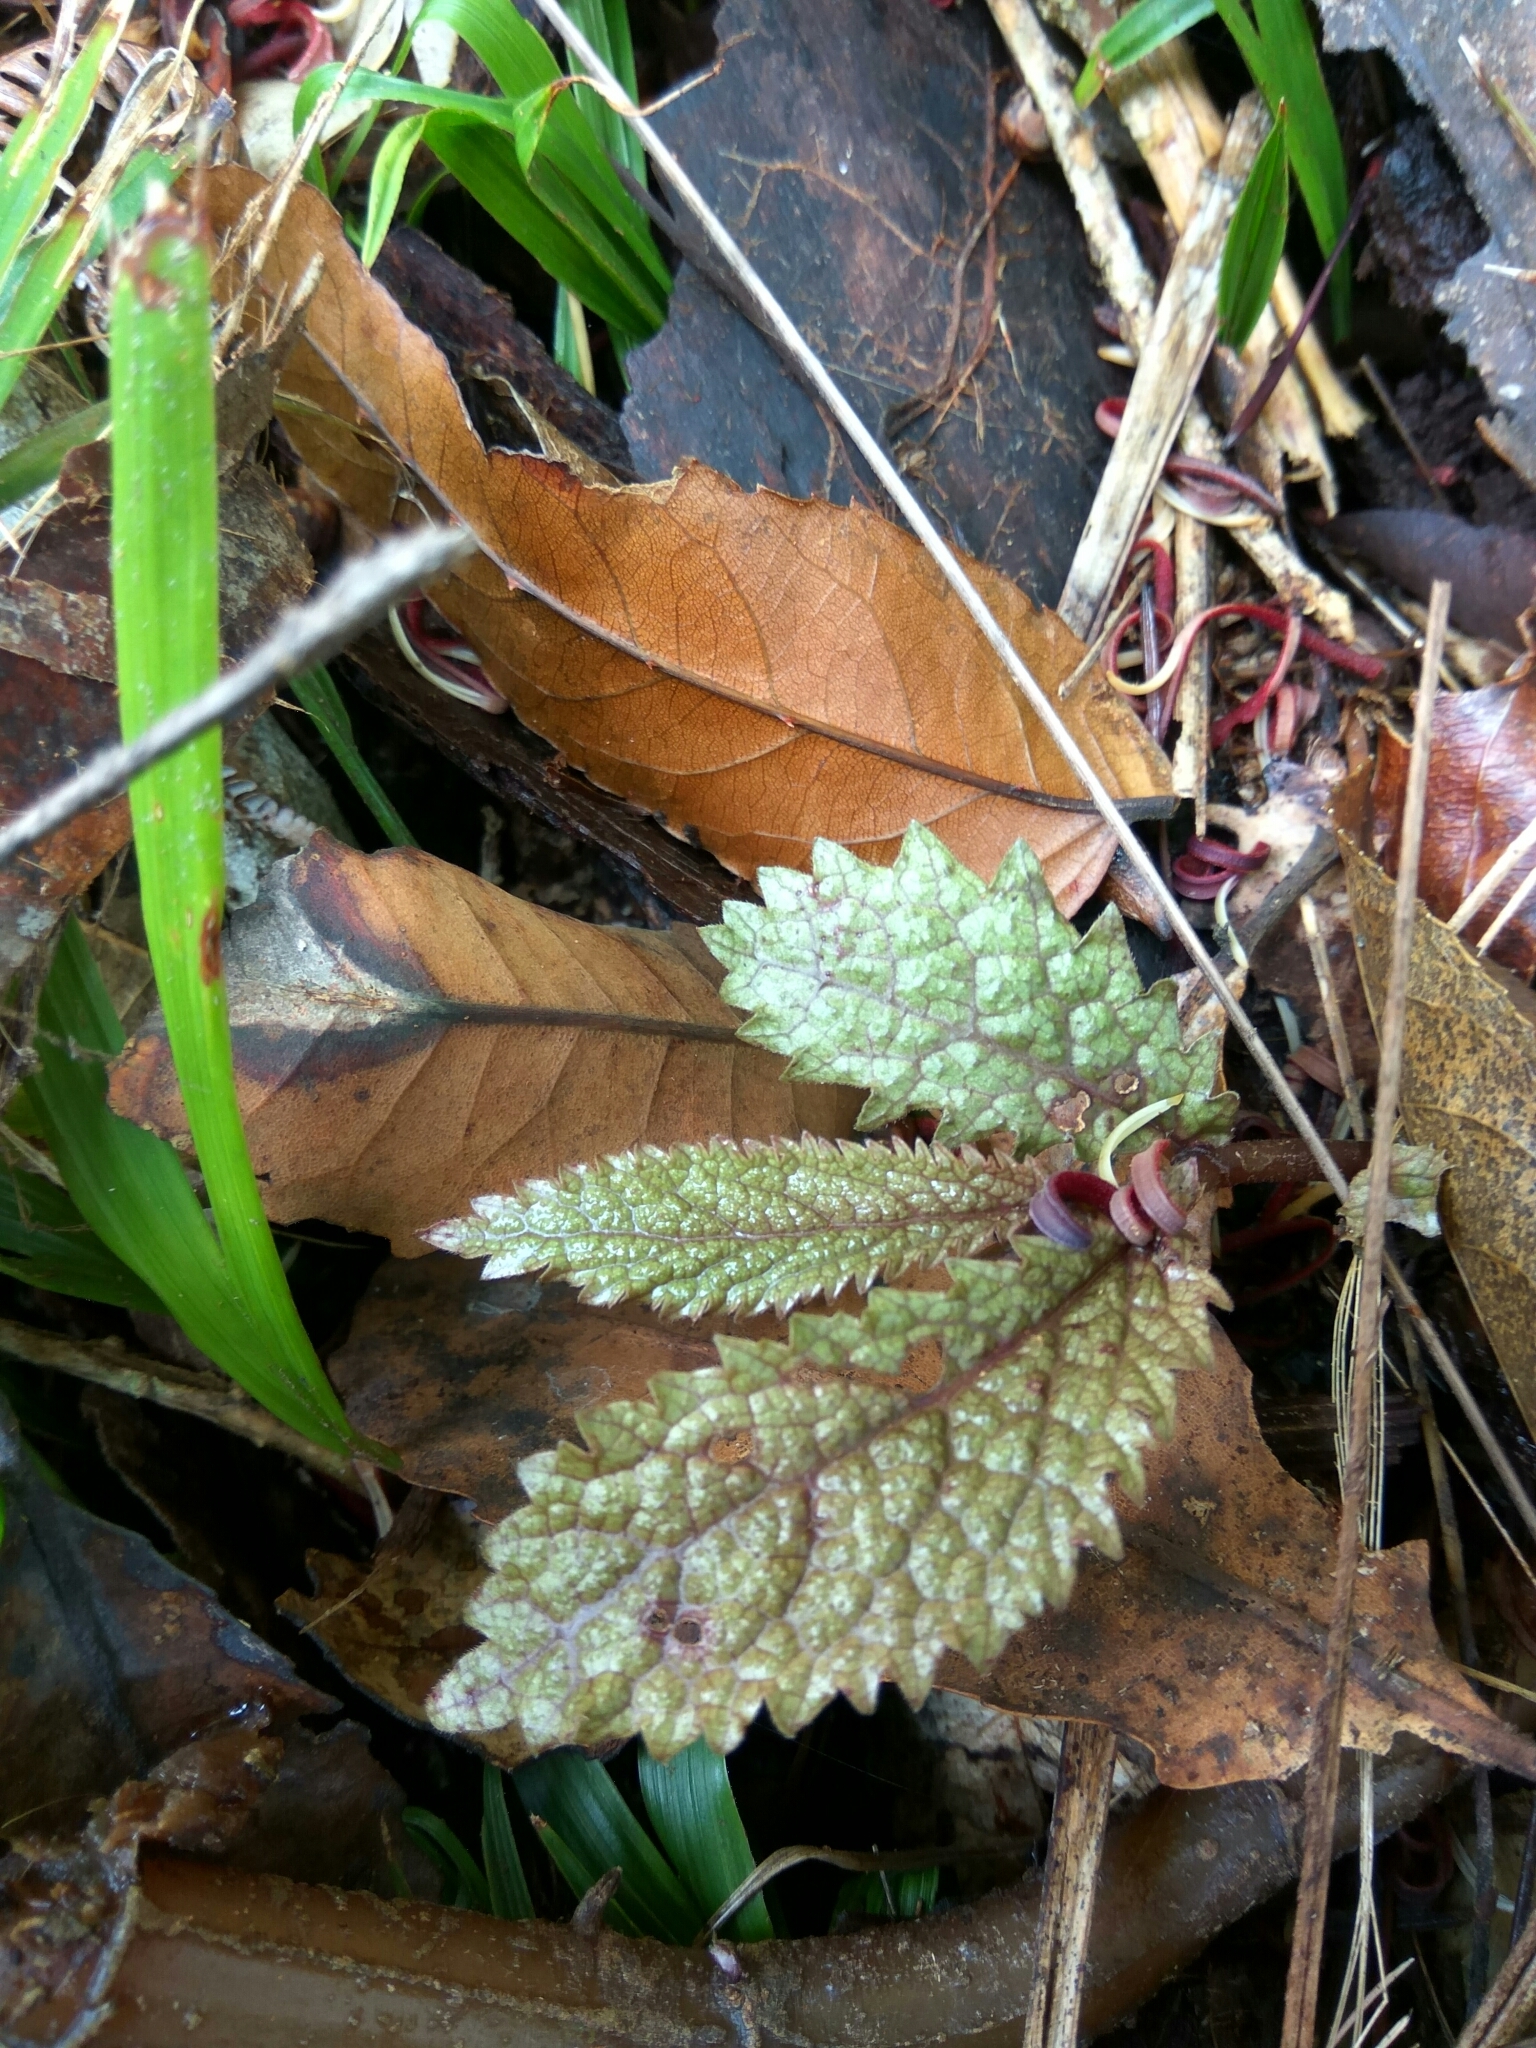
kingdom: Plantae
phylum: Tracheophyta
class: Magnoliopsida
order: Rosales
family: Urticaceae
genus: Elatostema
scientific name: Elatostema rugosum
